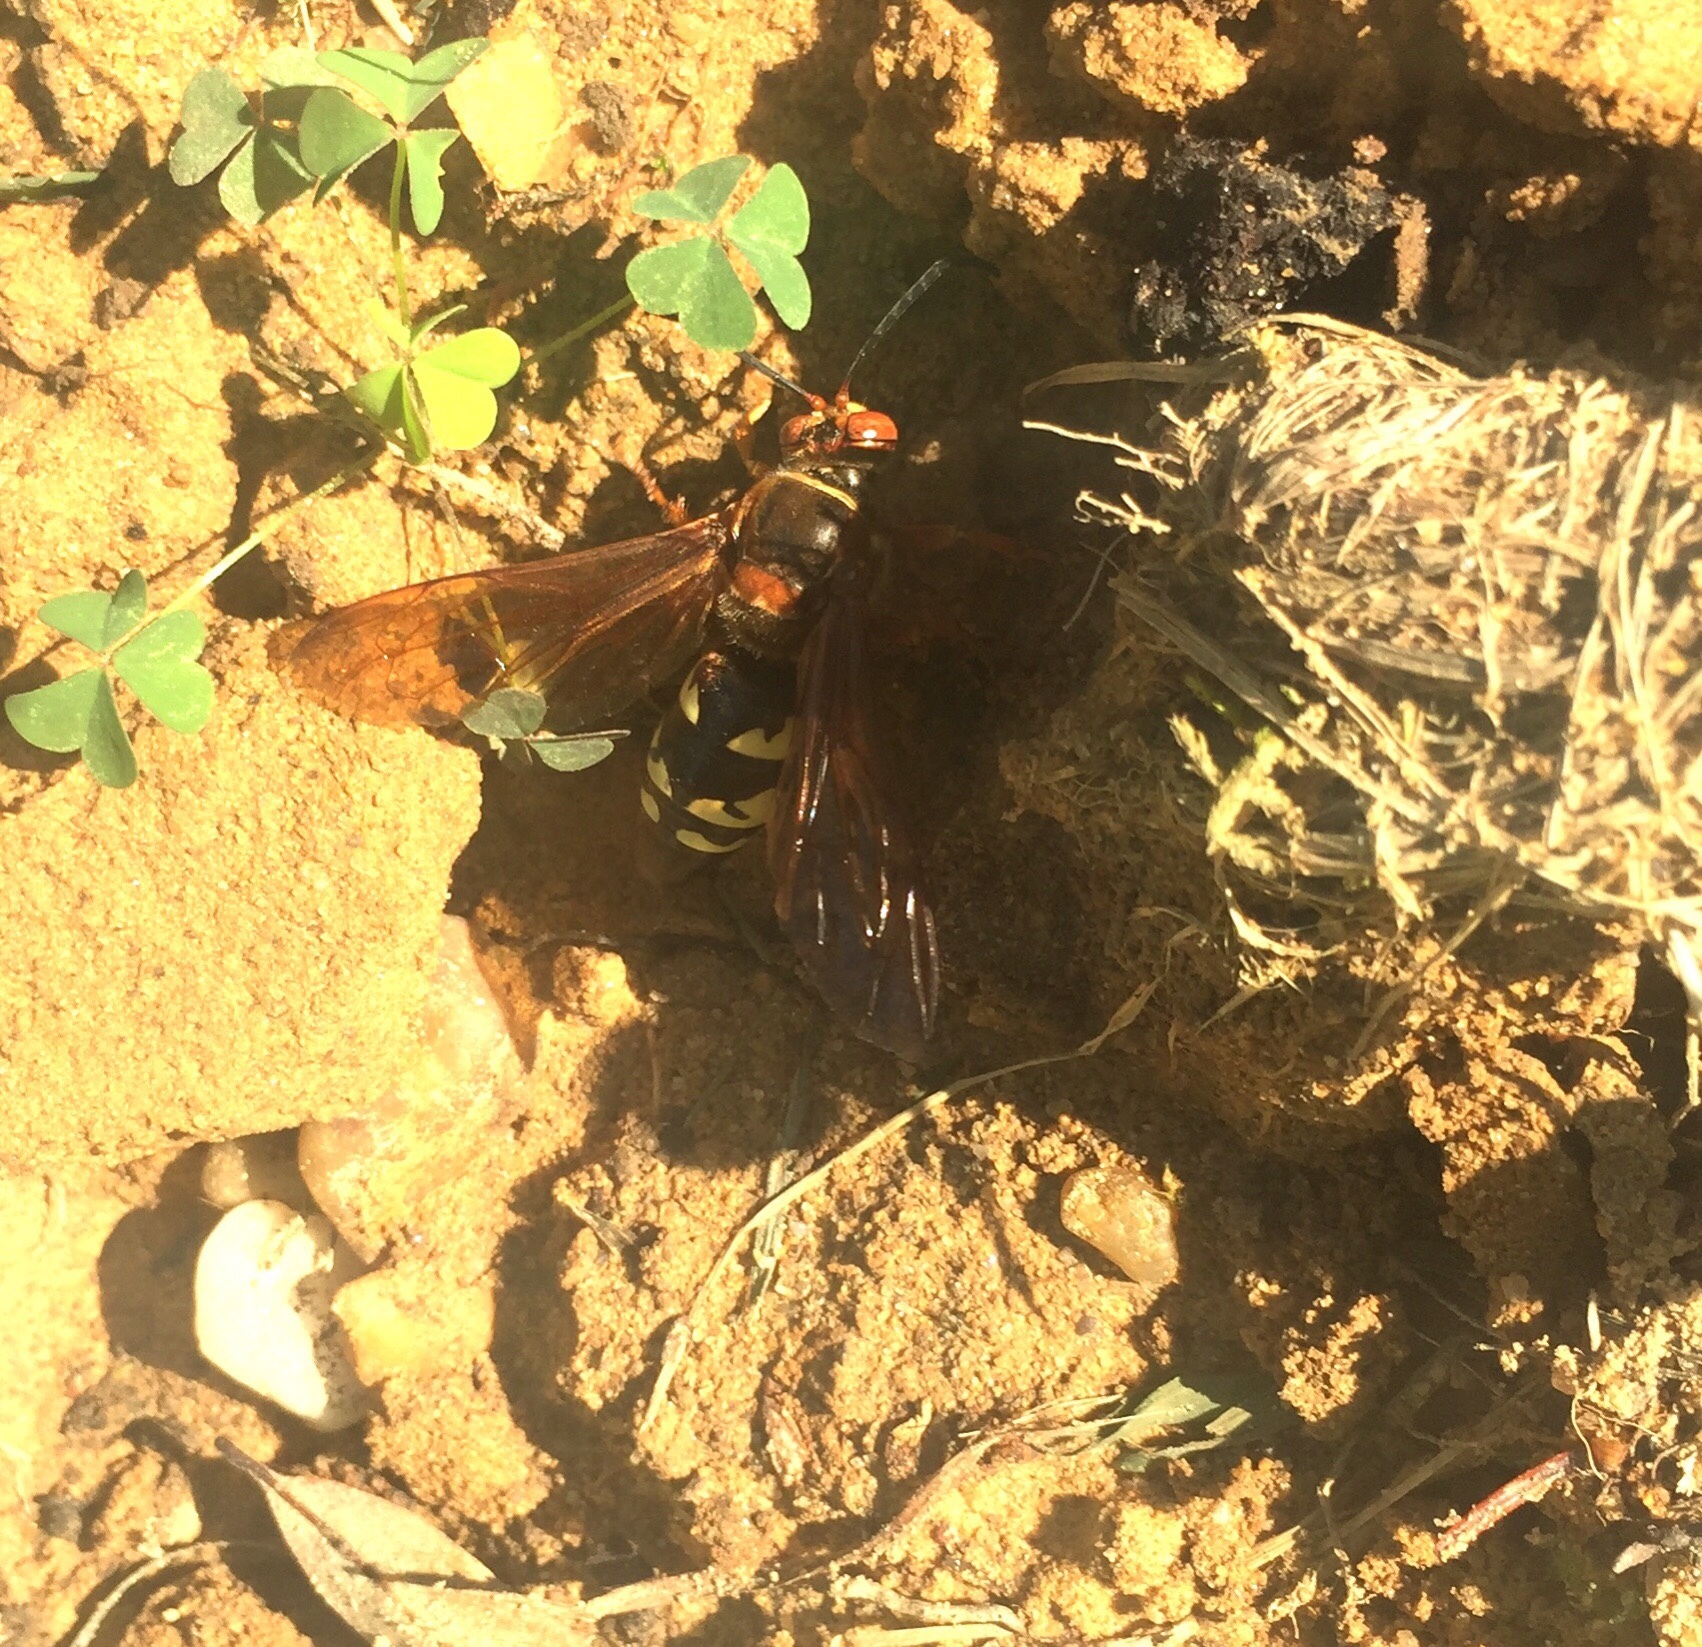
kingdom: Animalia
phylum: Arthropoda
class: Insecta
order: Hymenoptera
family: Crabronidae
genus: Sphecius
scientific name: Sphecius speciosus
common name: Cicada killer
